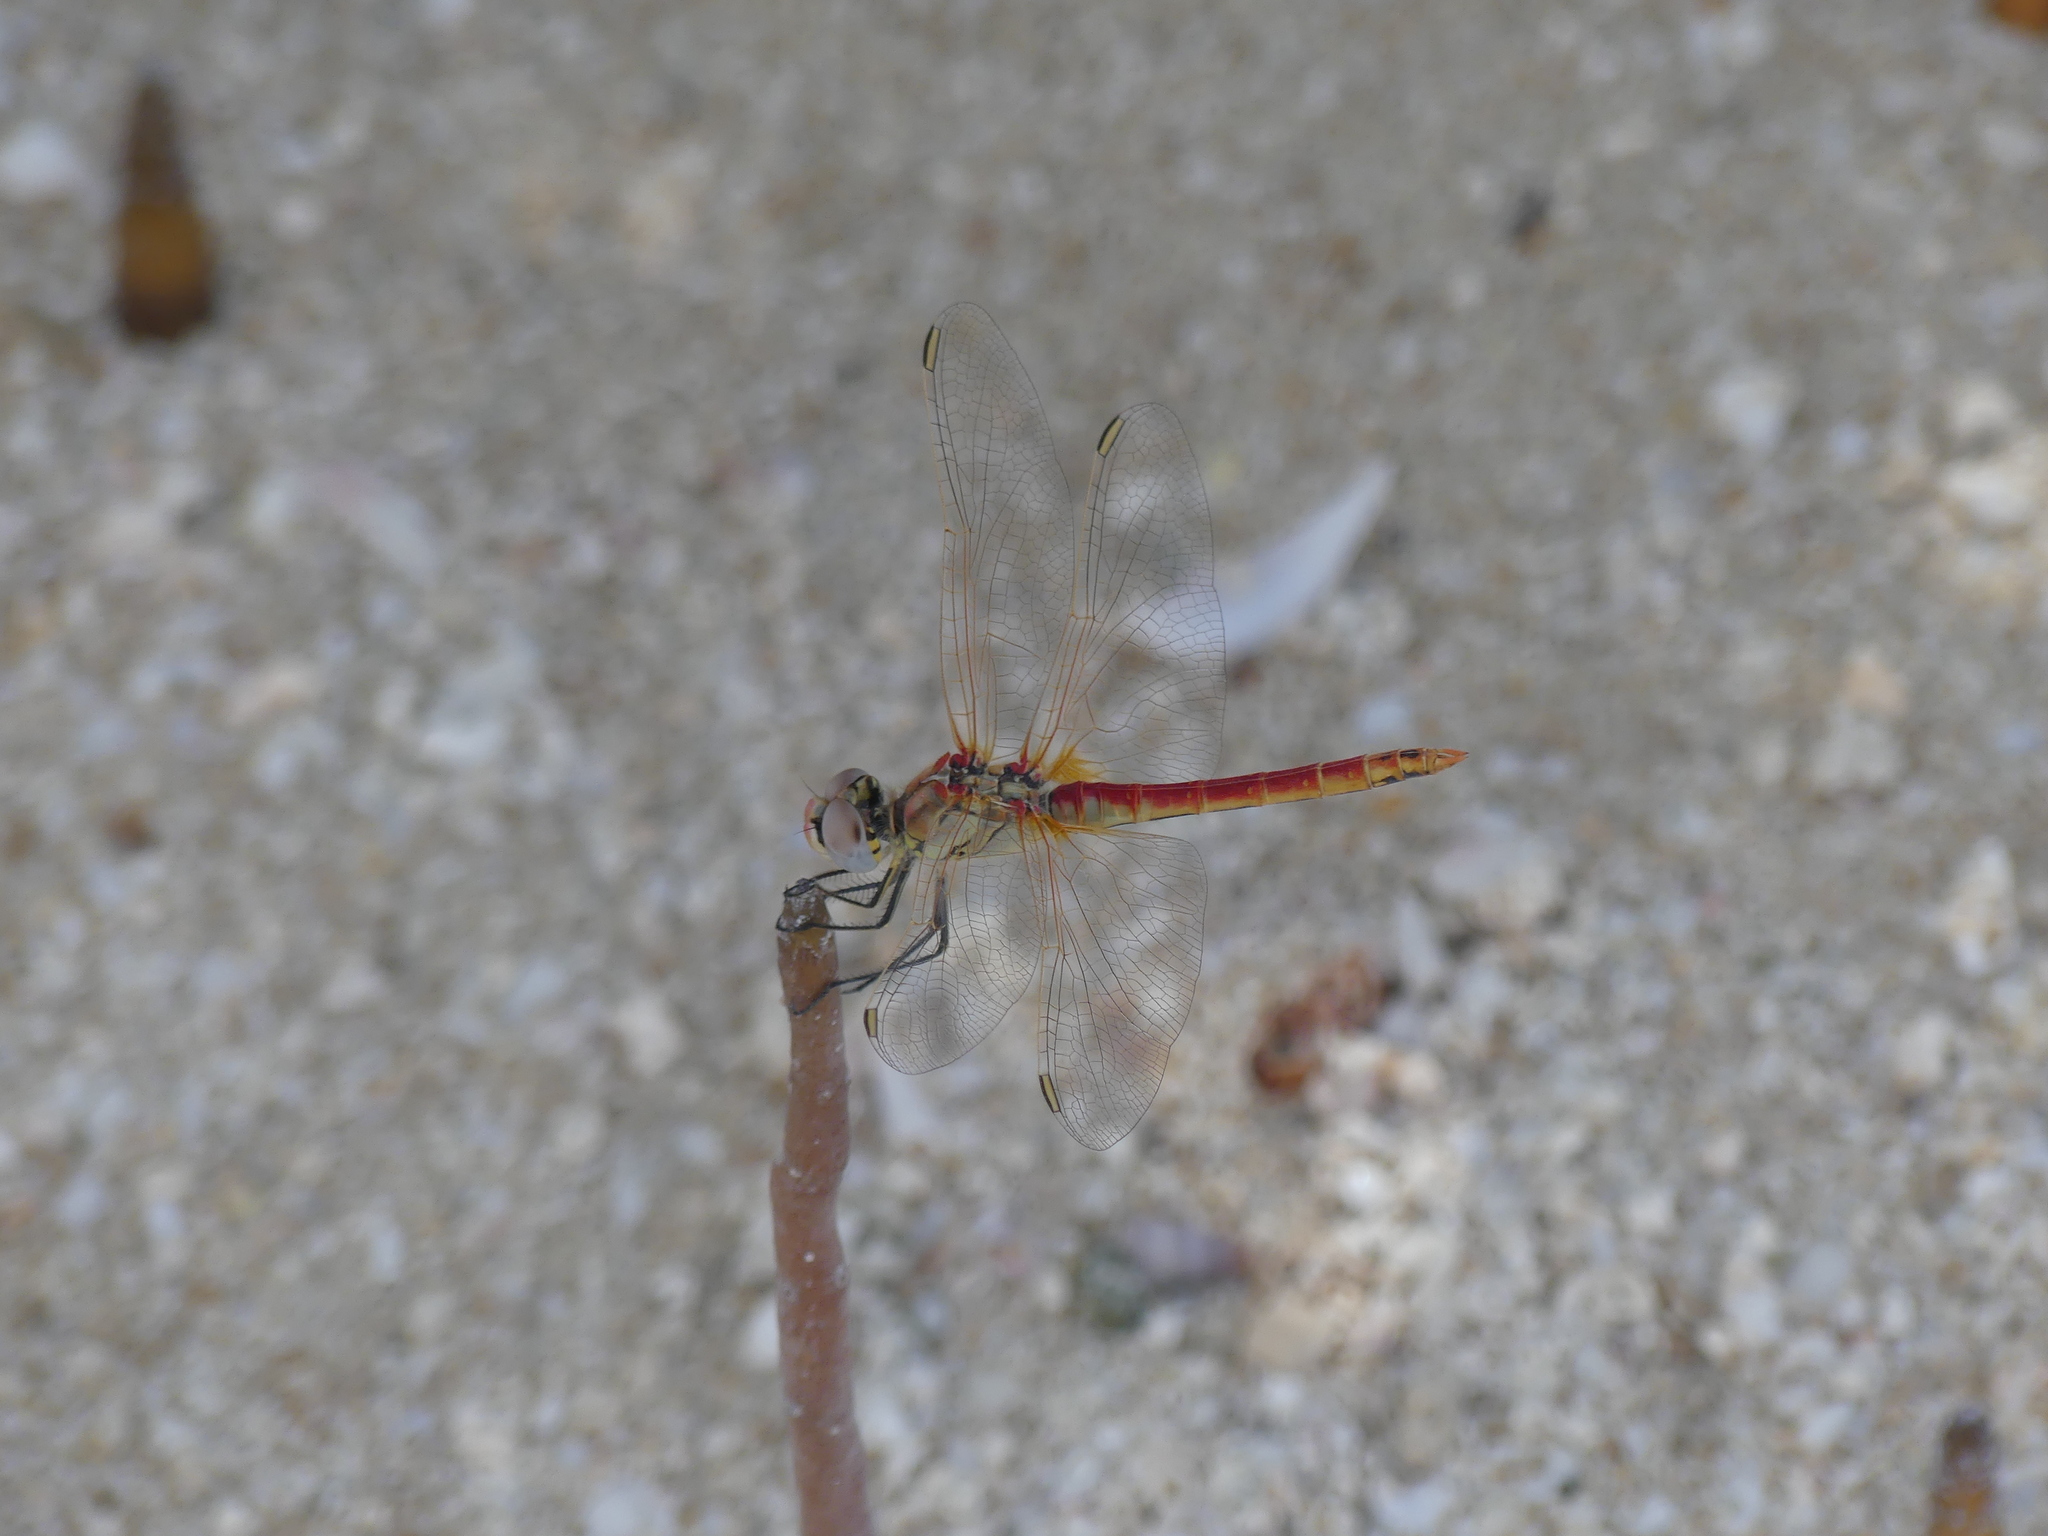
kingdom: Animalia
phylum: Arthropoda
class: Insecta
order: Odonata
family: Libellulidae
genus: Sympetrum
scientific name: Sympetrum fonscolombii
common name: Red-veined darter
